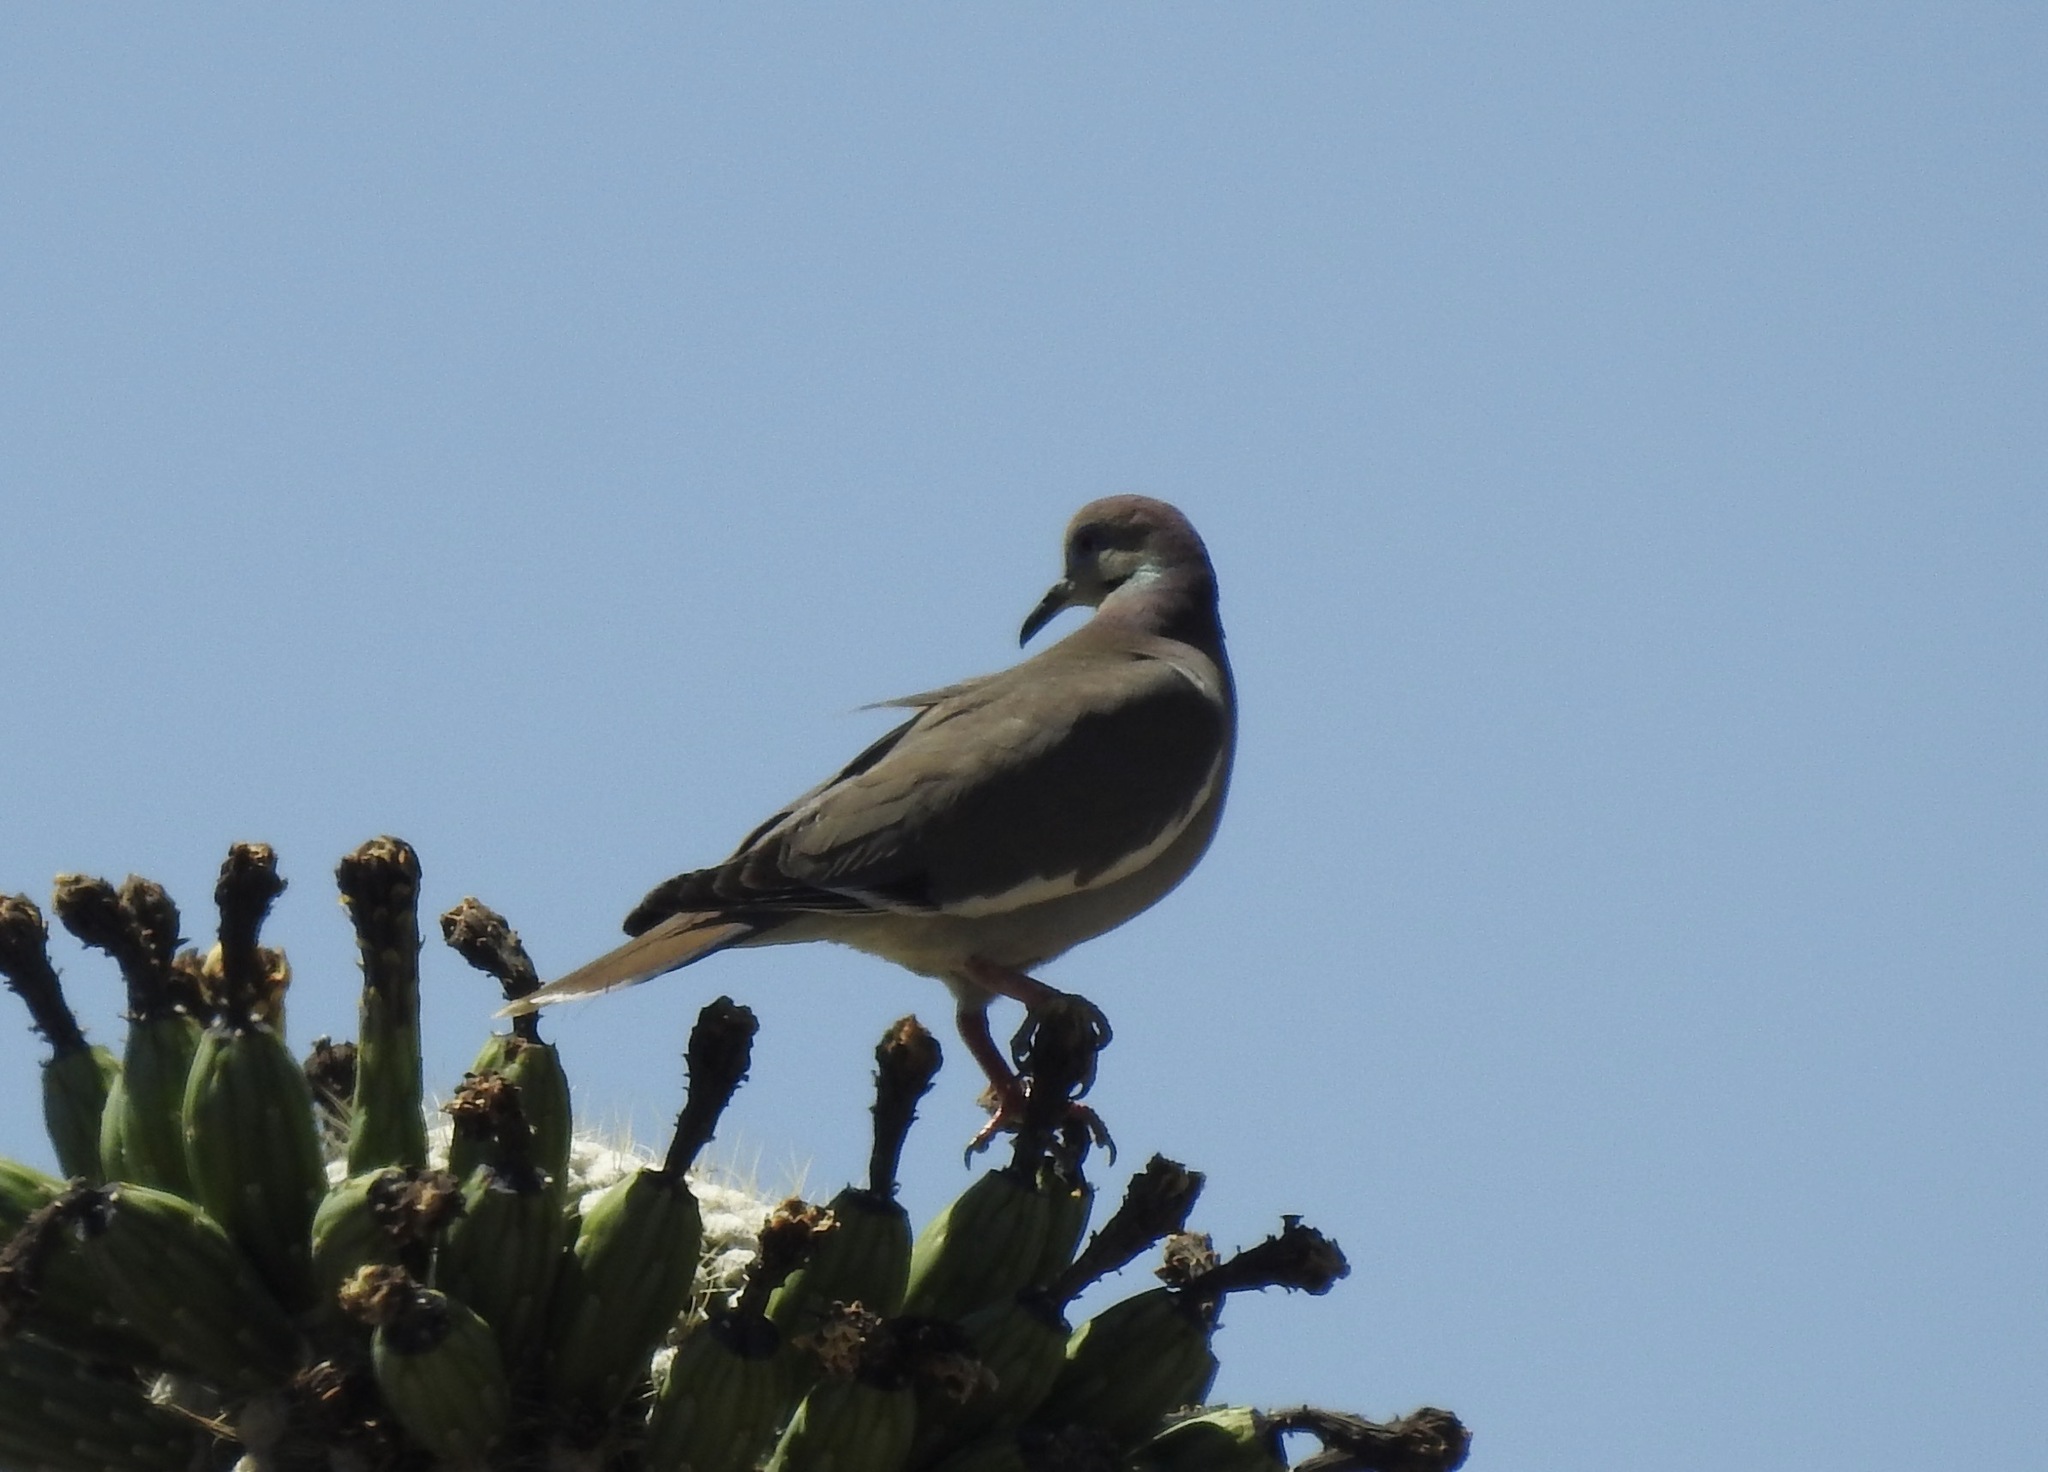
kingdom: Animalia
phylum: Chordata
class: Aves
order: Columbiformes
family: Columbidae
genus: Zenaida
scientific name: Zenaida asiatica
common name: White-winged dove
